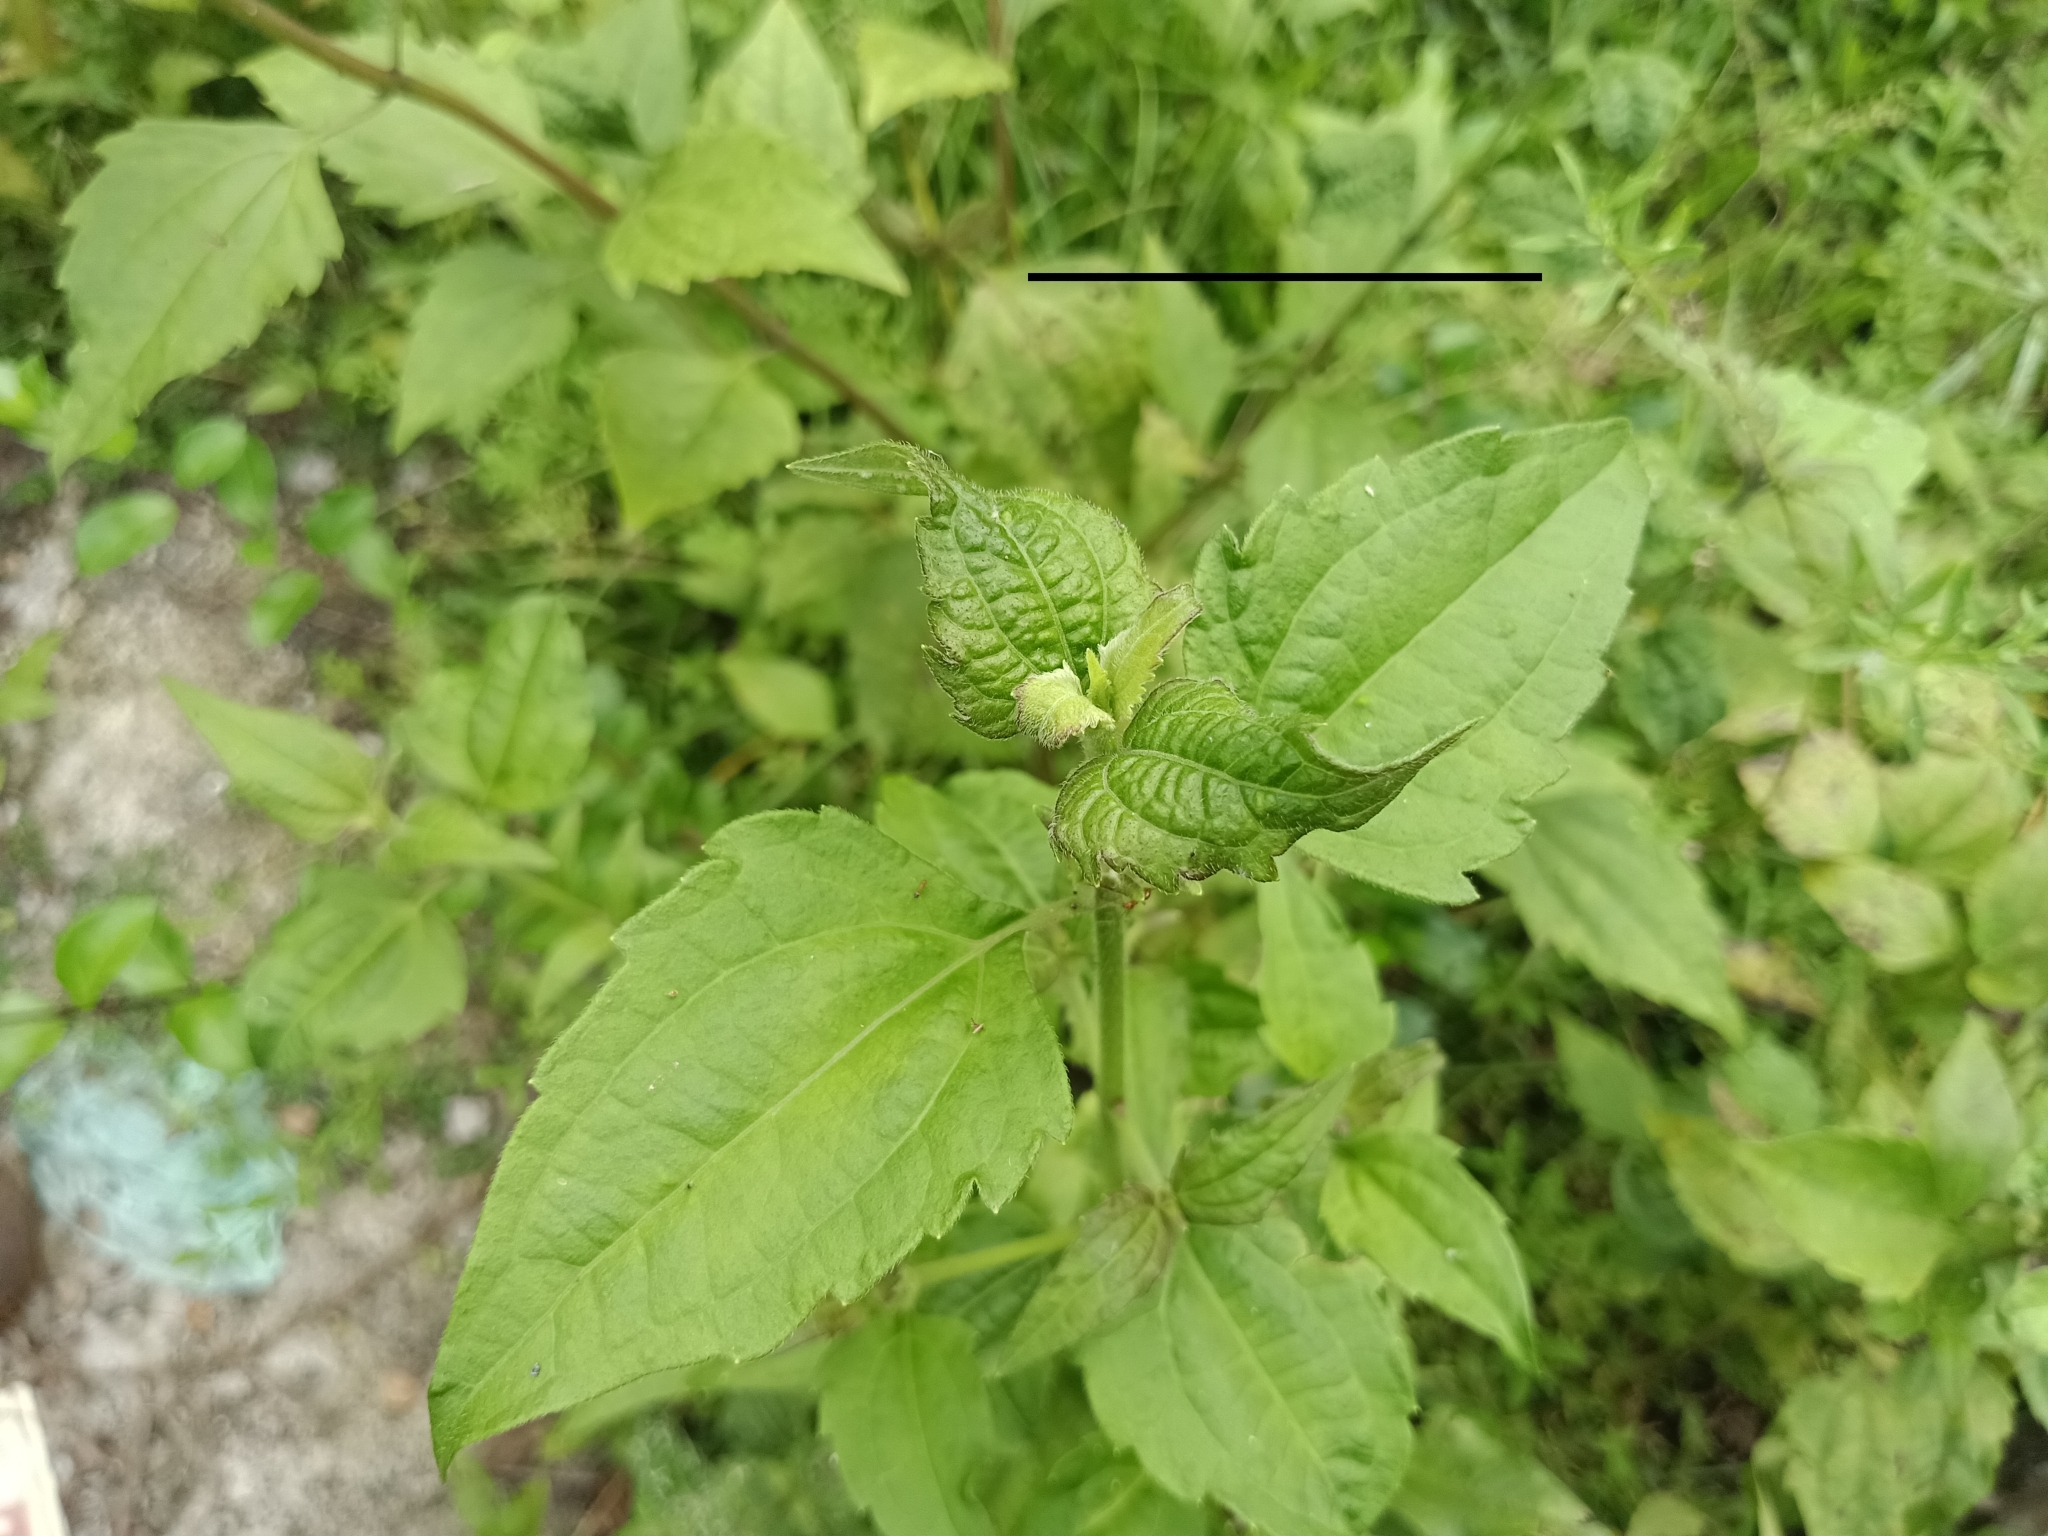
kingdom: Plantae
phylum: Tracheophyta
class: Magnoliopsida
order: Asterales
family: Asteraceae
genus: Chromolaena
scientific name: Chromolaena odorata
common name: Siamweed
